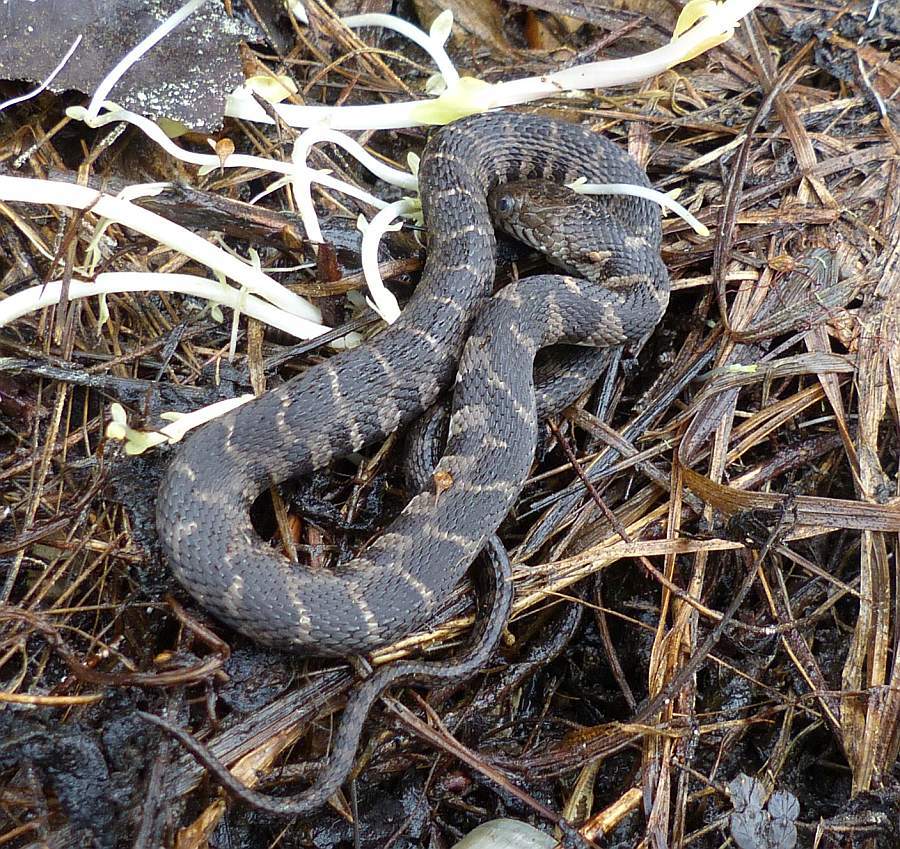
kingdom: Animalia
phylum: Chordata
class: Squamata
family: Colubridae
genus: Nerodia
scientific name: Nerodia sipedon
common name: Northern water snake
